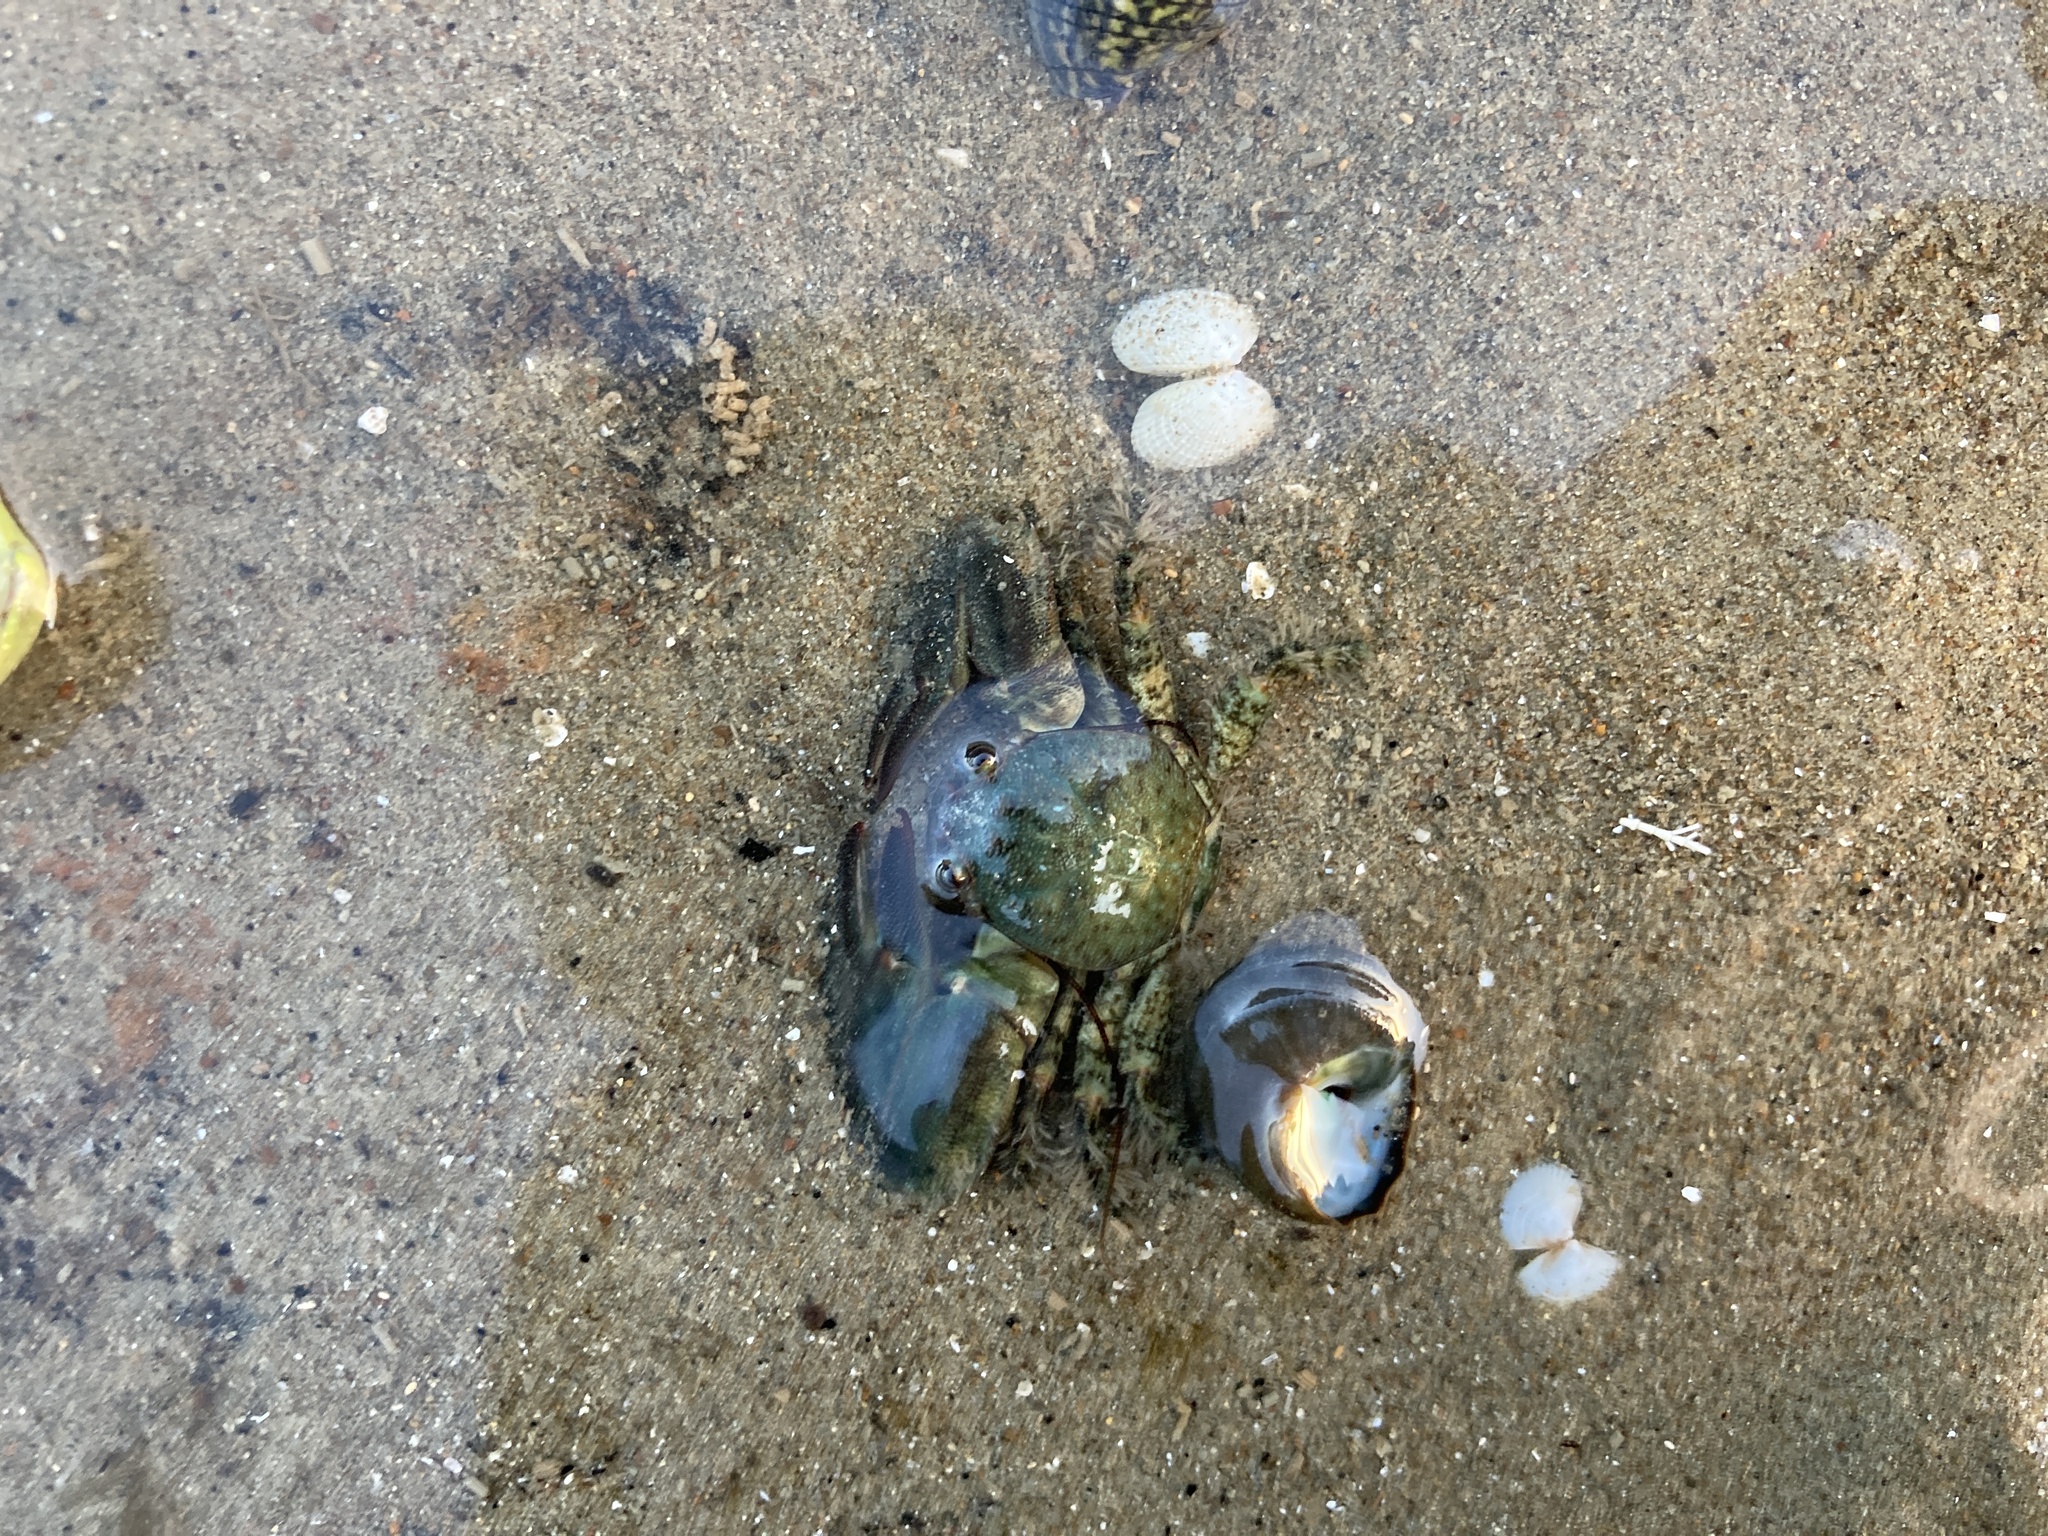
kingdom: Animalia
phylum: Arthropoda
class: Malacostraca
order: Decapoda
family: Porcellanidae
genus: Petrolisthes
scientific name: Petrolisthes elongatus
